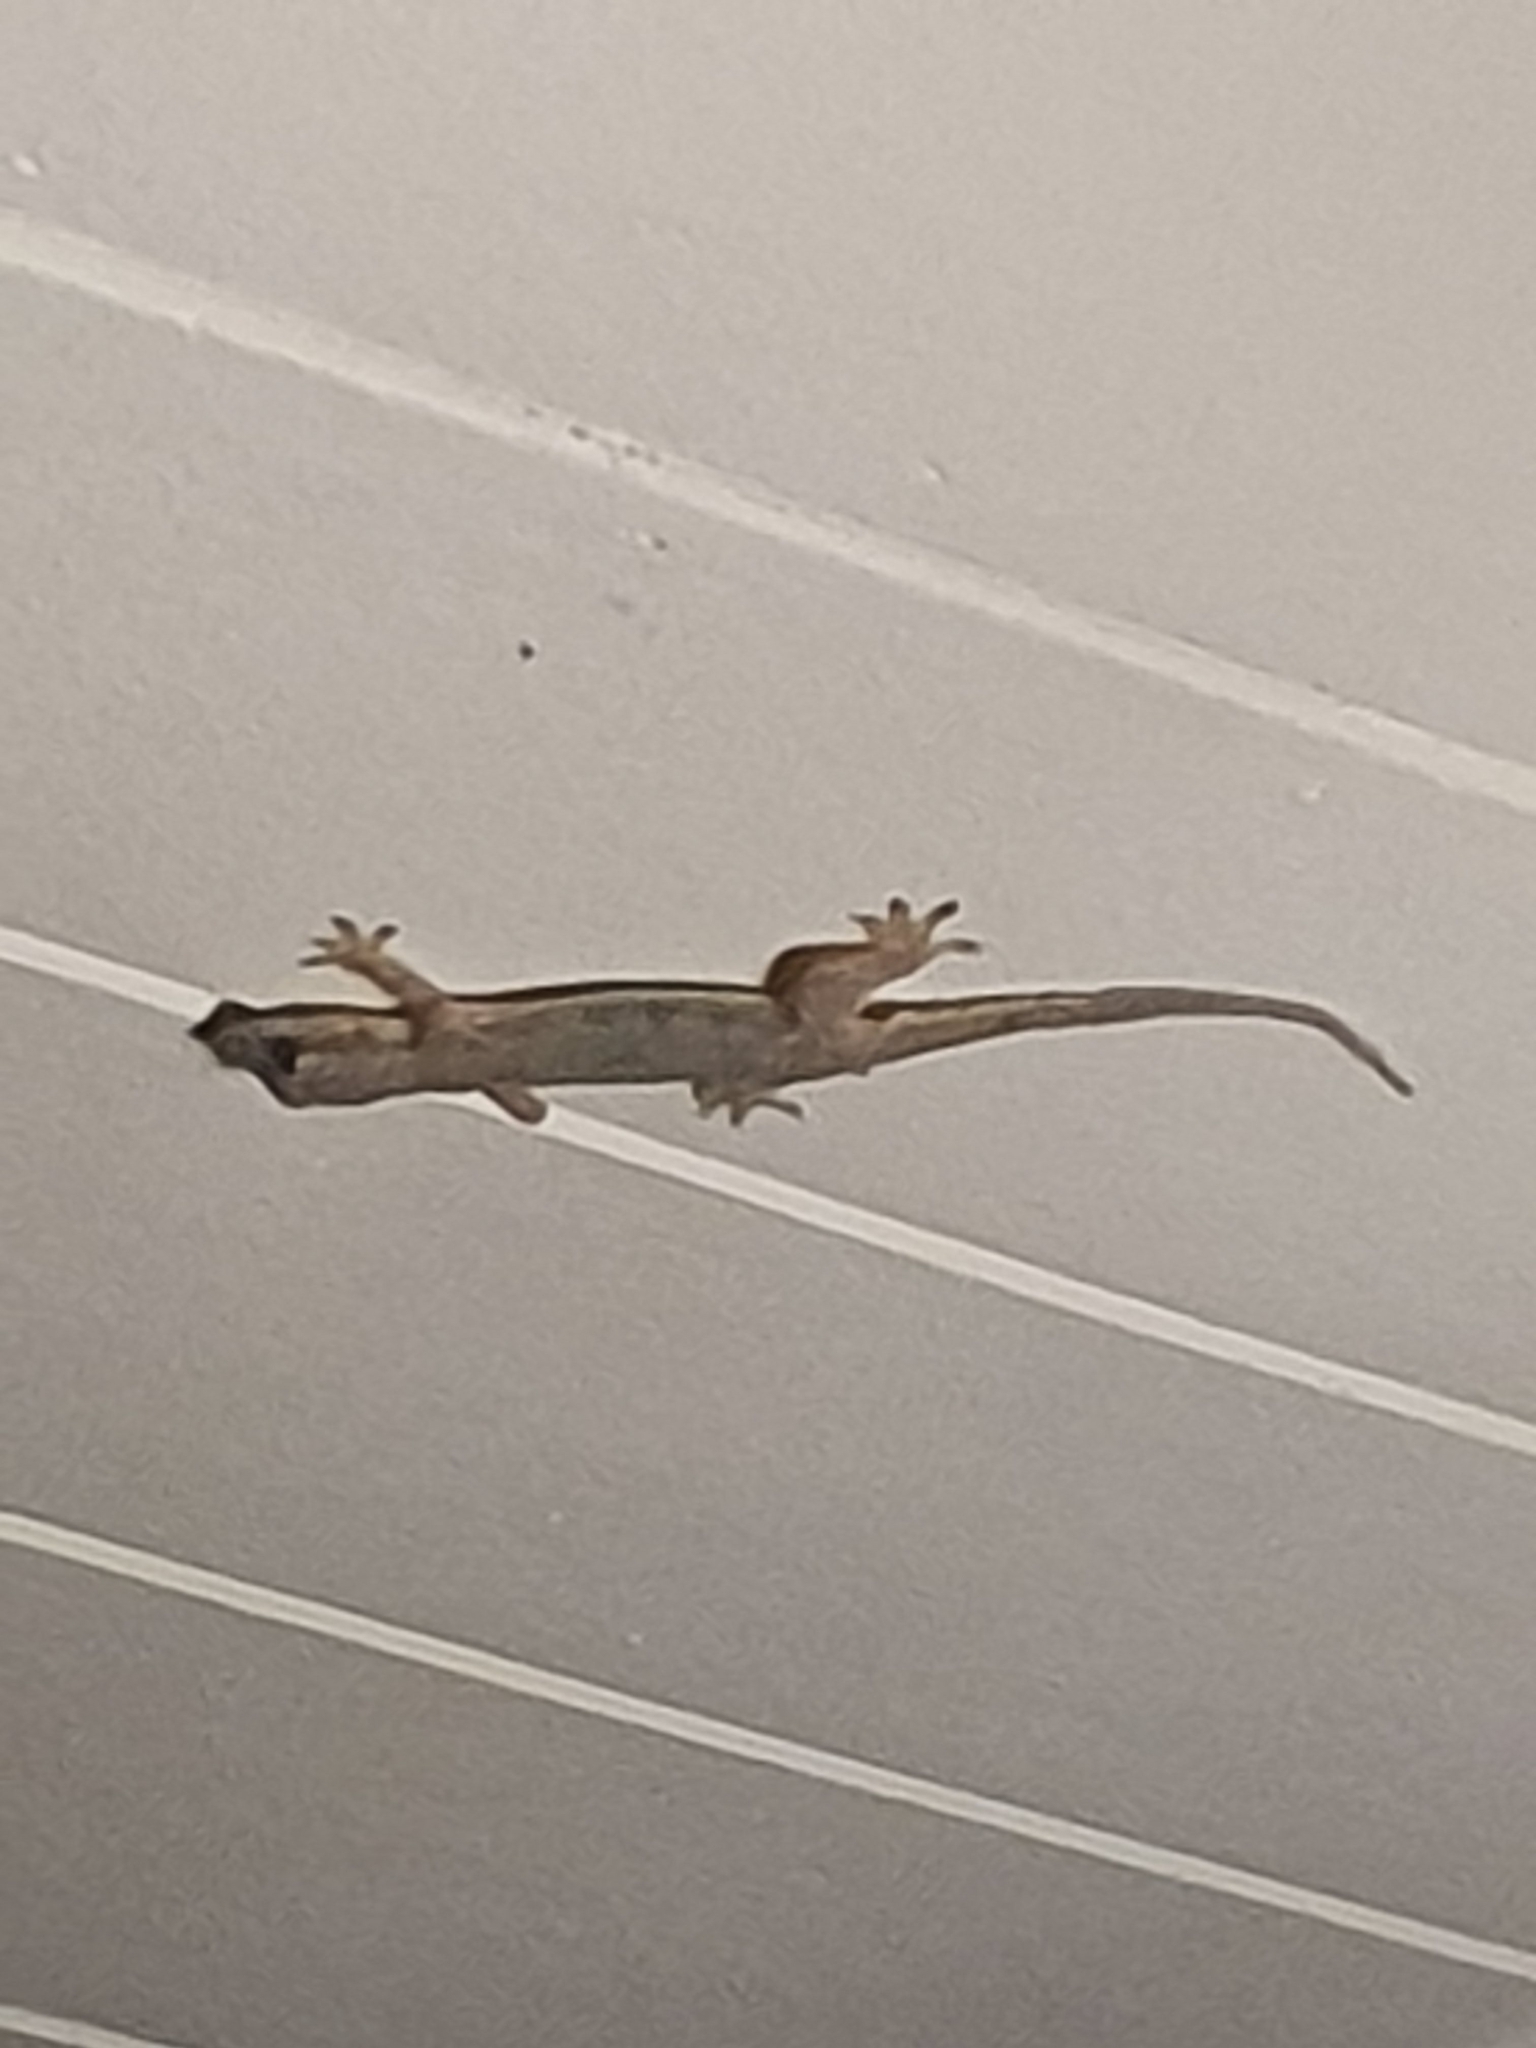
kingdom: Animalia
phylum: Chordata
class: Squamata
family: Gekkonidae
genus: Hemidactylus
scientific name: Hemidactylus platyurus
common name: Flat-tailed house gecko
